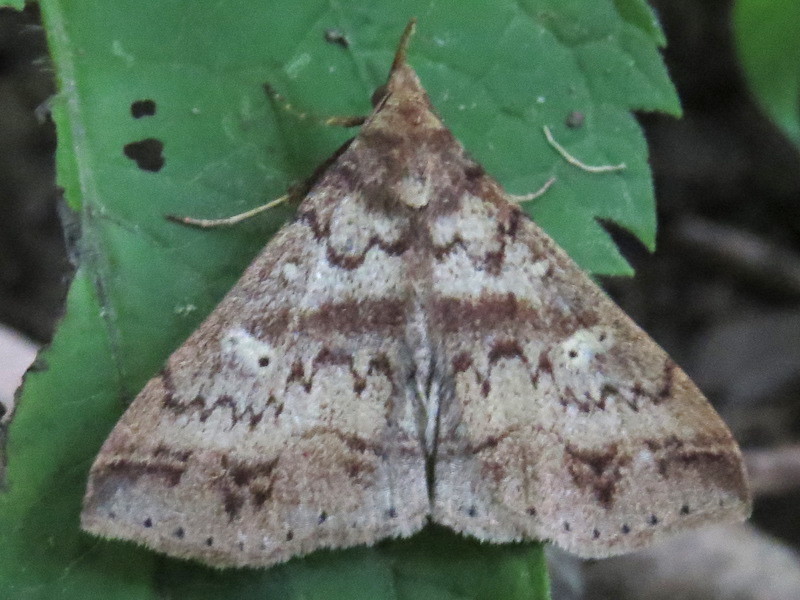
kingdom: Animalia
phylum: Arthropoda
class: Insecta
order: Lepidoptera
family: Erebidae
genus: Renia
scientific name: Renia discoloralis
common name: Discolored renia moth
